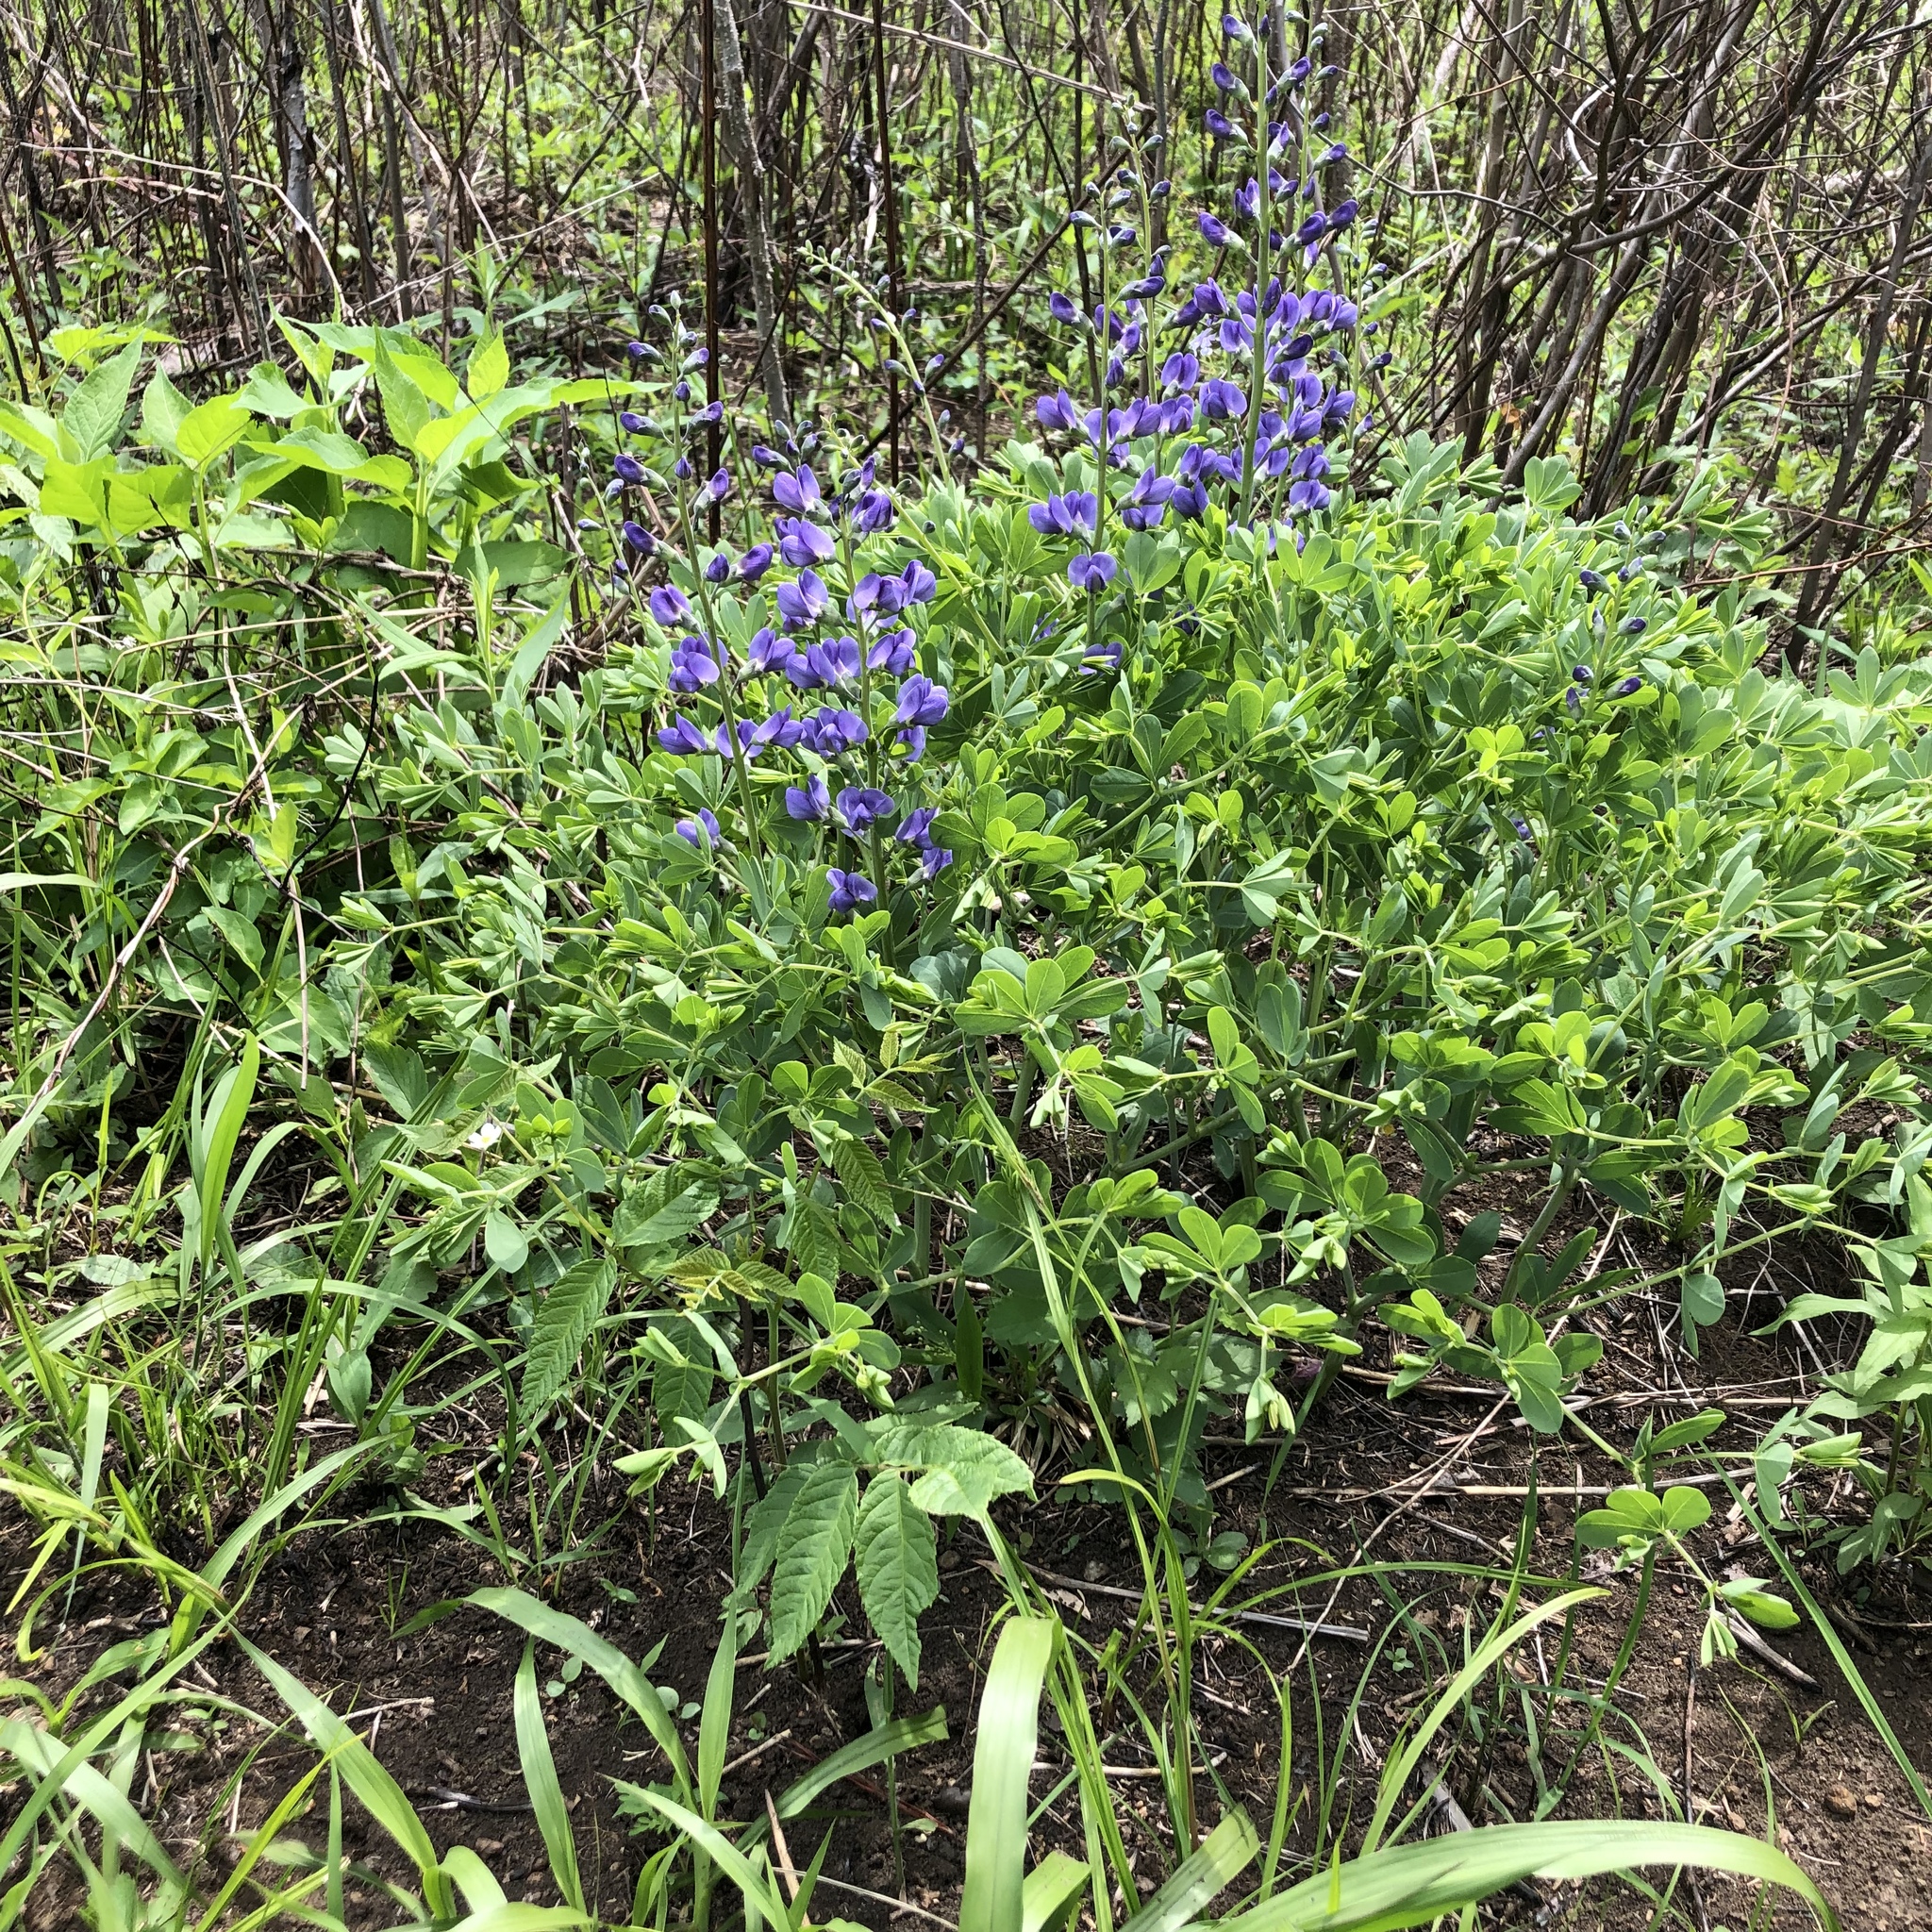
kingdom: Plantae
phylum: Tracheophyta
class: Magnoliopsida
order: Fabales
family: Fabaceae
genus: Baptisia
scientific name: Baptisia aberrans
